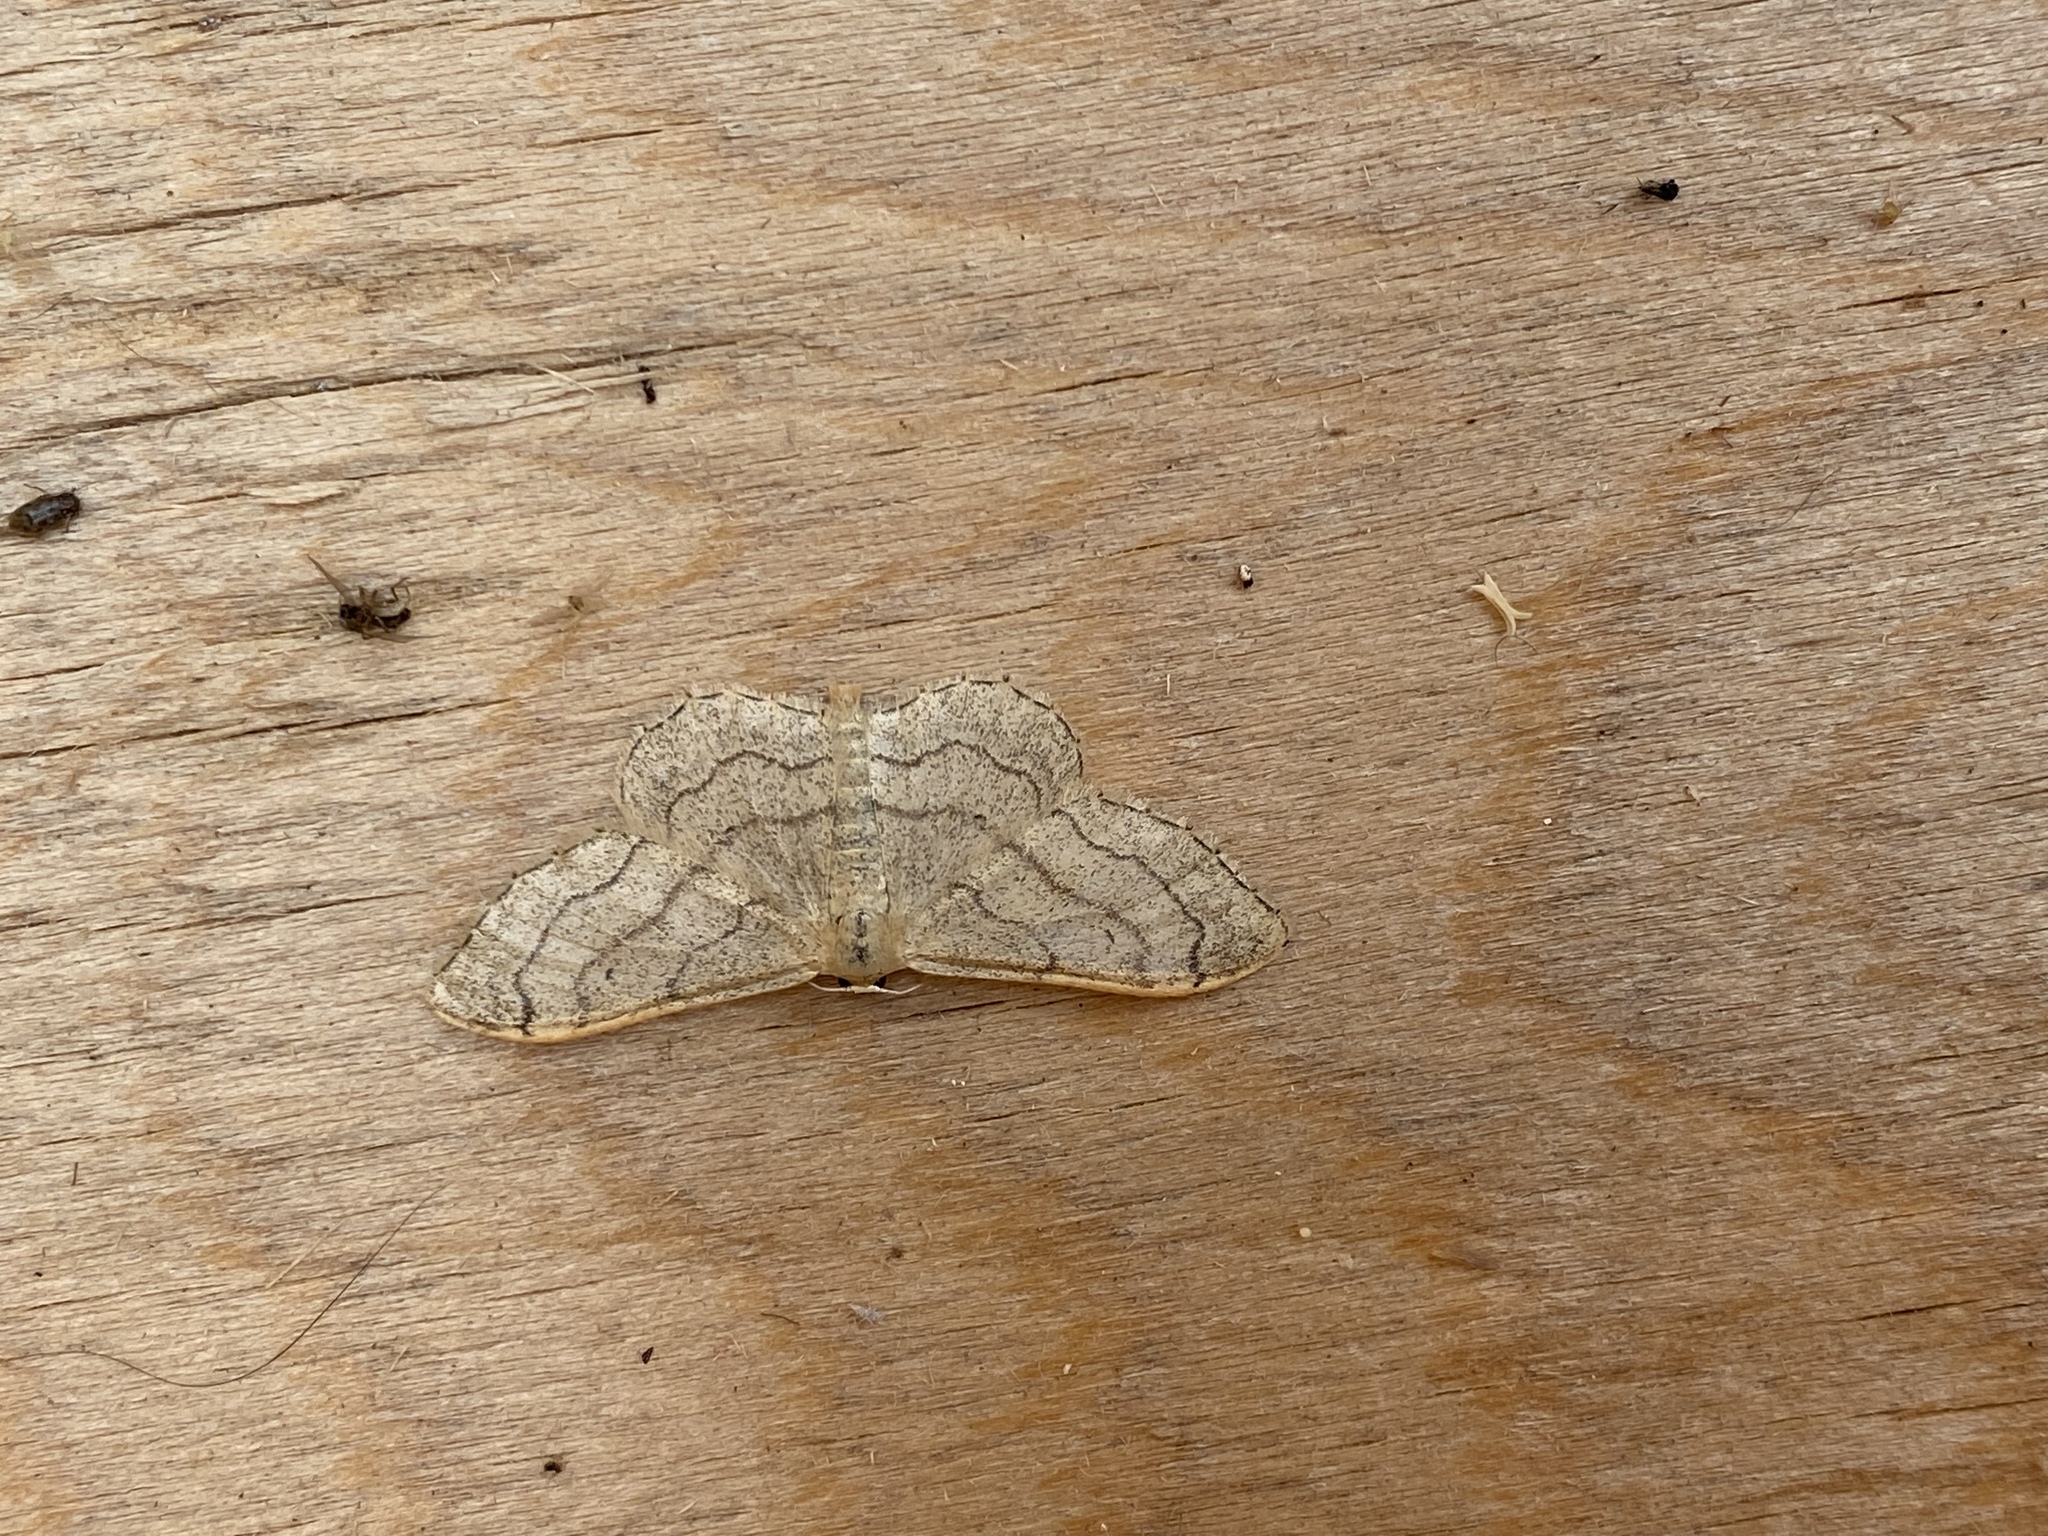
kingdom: Animalia
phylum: Arthropoda
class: Insecta
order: Lepidoptera
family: Geometridae
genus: Idaea
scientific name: Idaea aversata
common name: Riband wave
